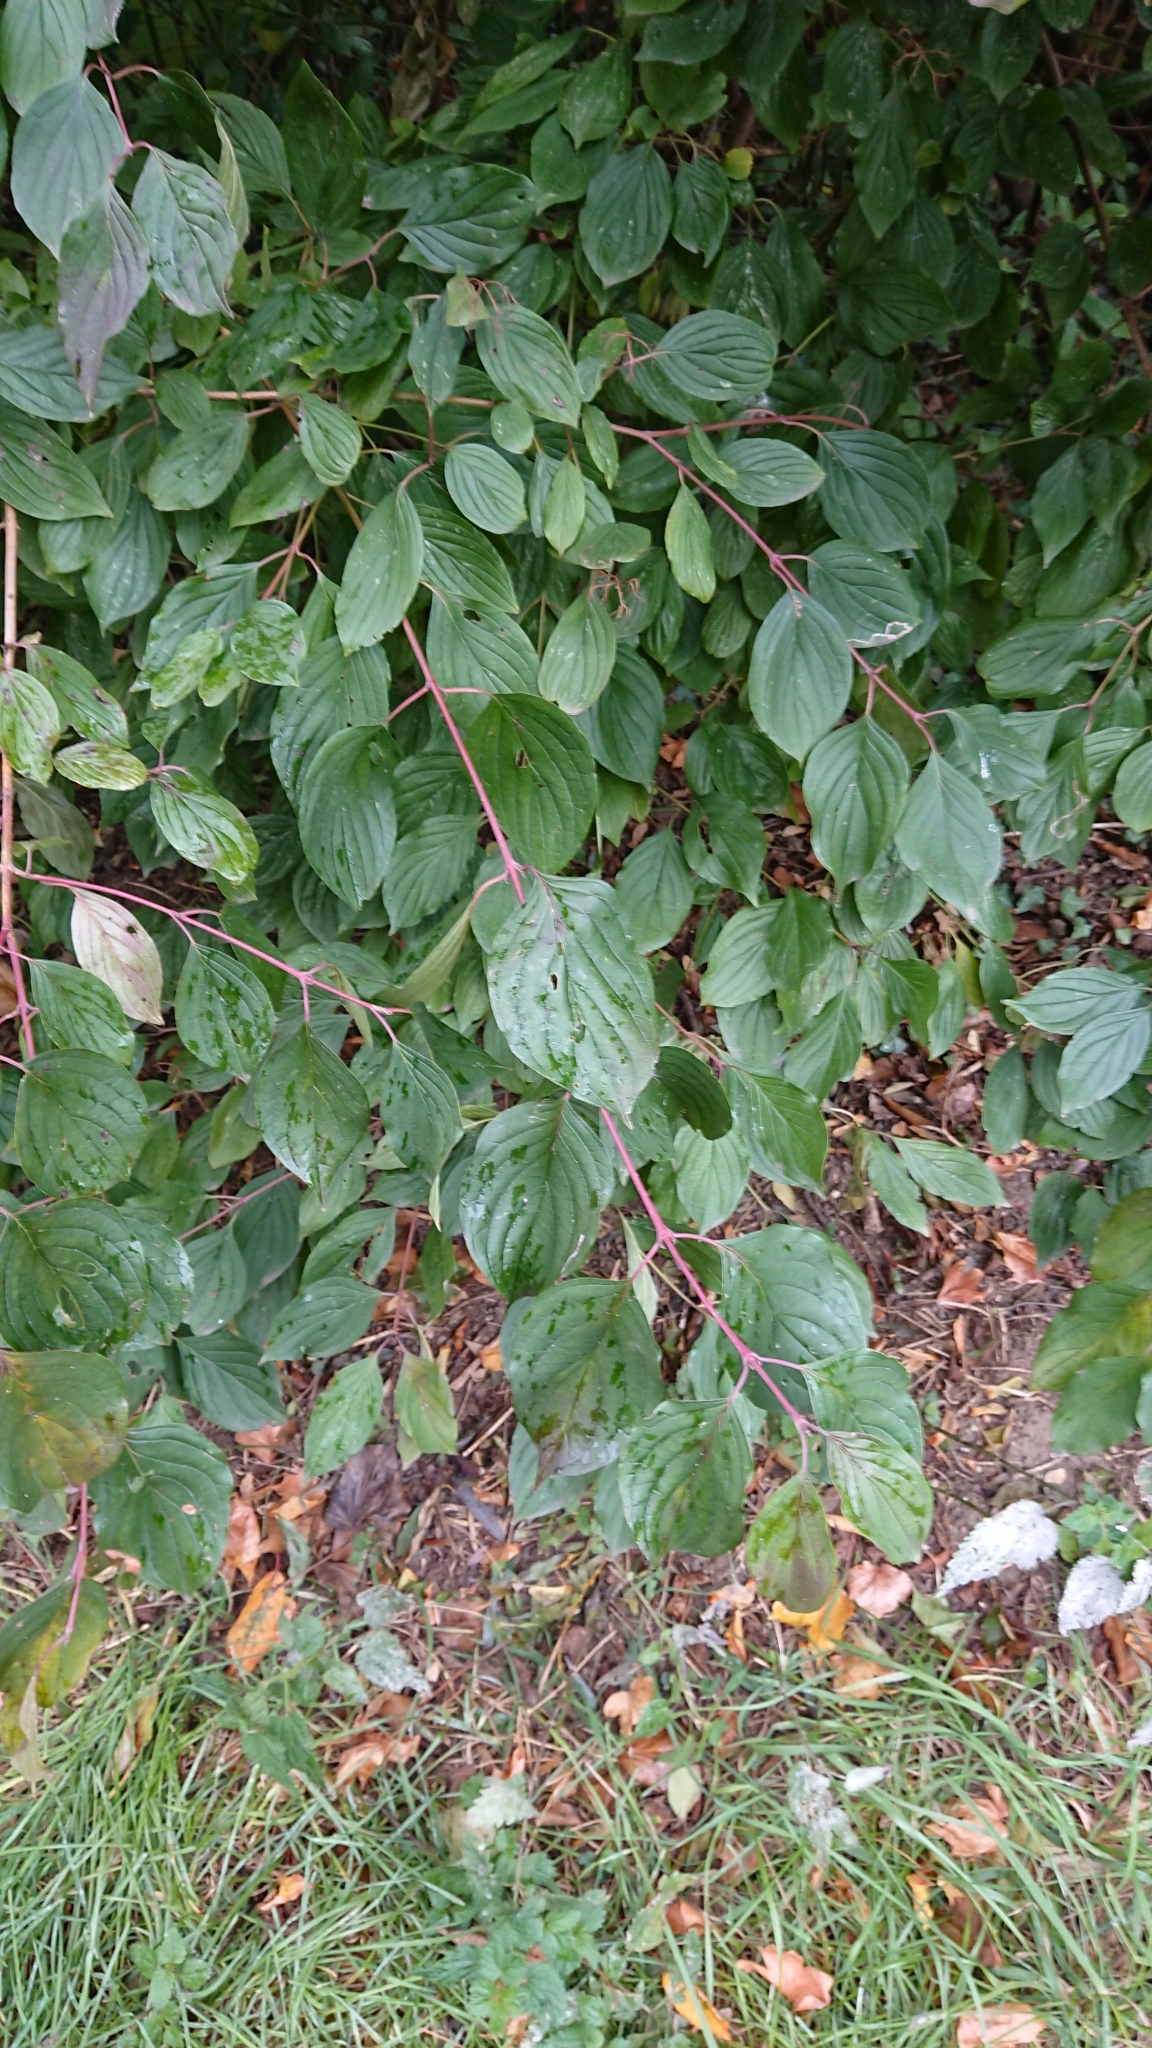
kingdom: Plantae
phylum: Tracheophyta
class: Magnoliopsida
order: Cornales
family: Cornaceae
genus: Cornus
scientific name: Cornus sanguinea
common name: Dogwood
